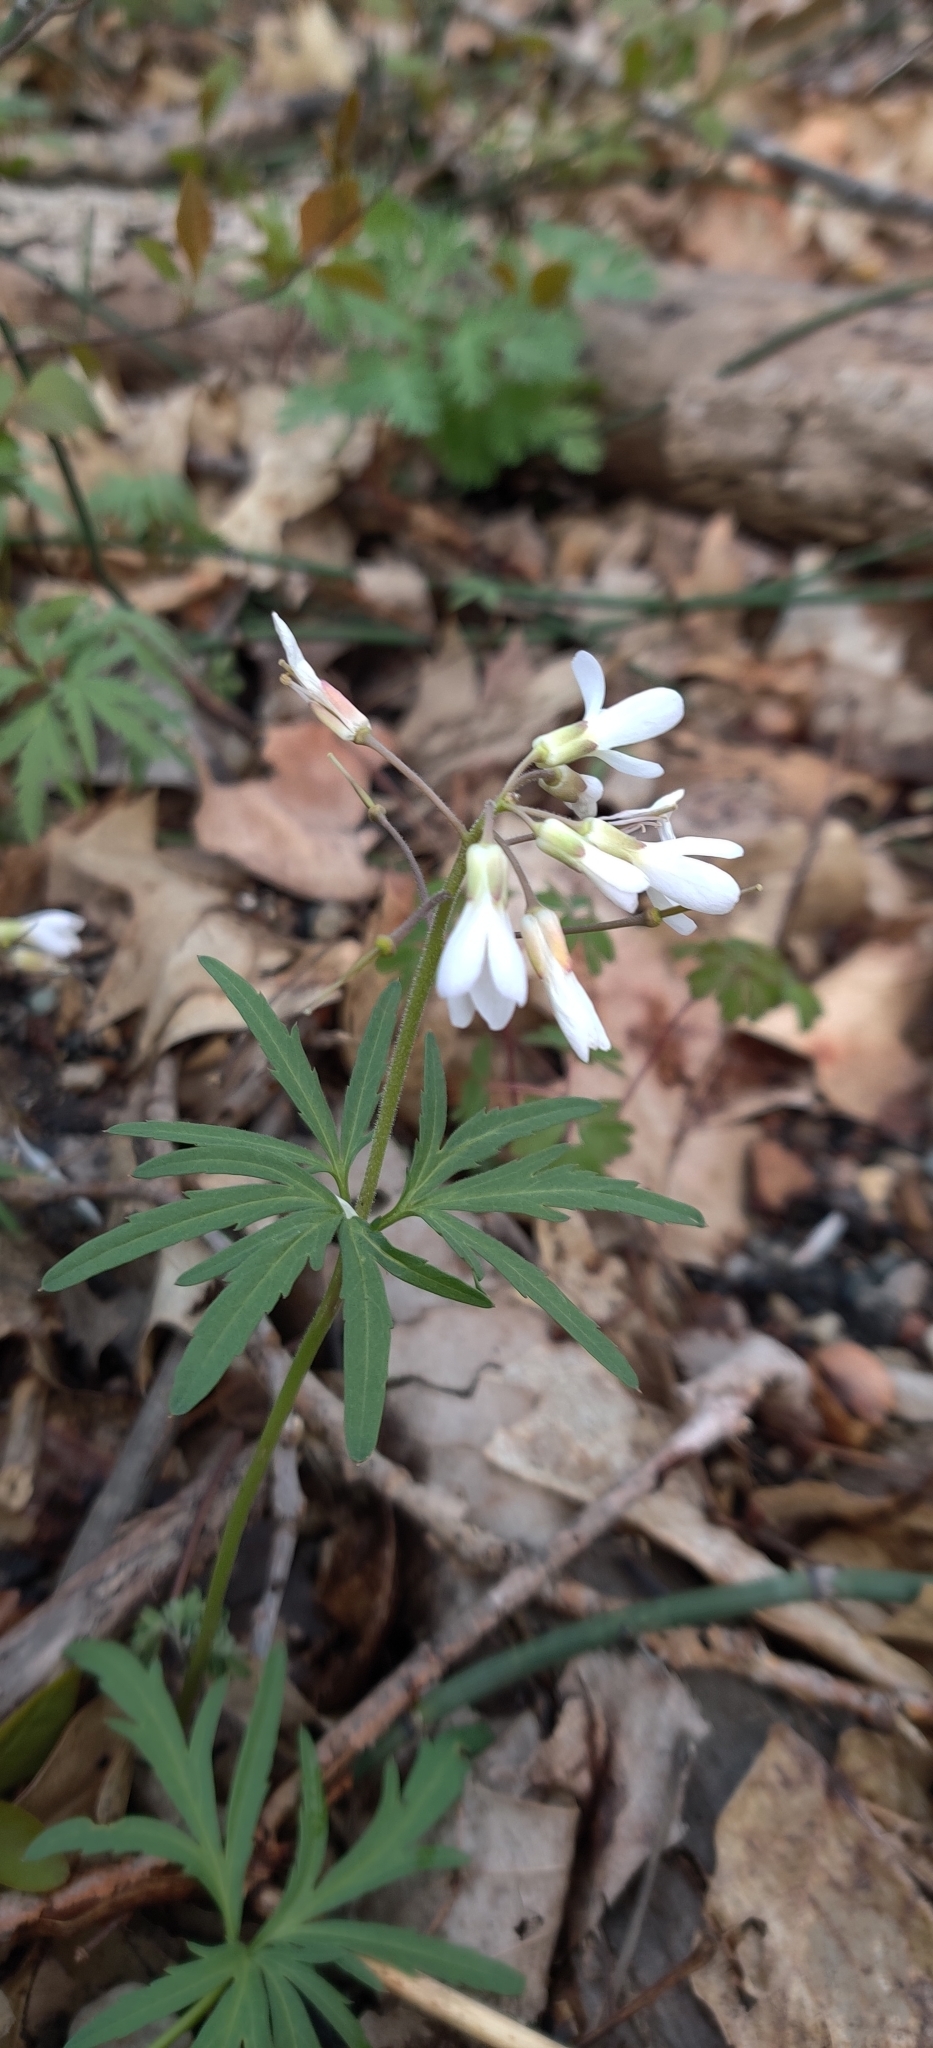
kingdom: Plantae
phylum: Tracheophyta
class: Magnoliopsida
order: Brassicales
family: Brassicaceae
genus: Cardamine
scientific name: Cardamine concatenata
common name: Cut-leaf toothcup
